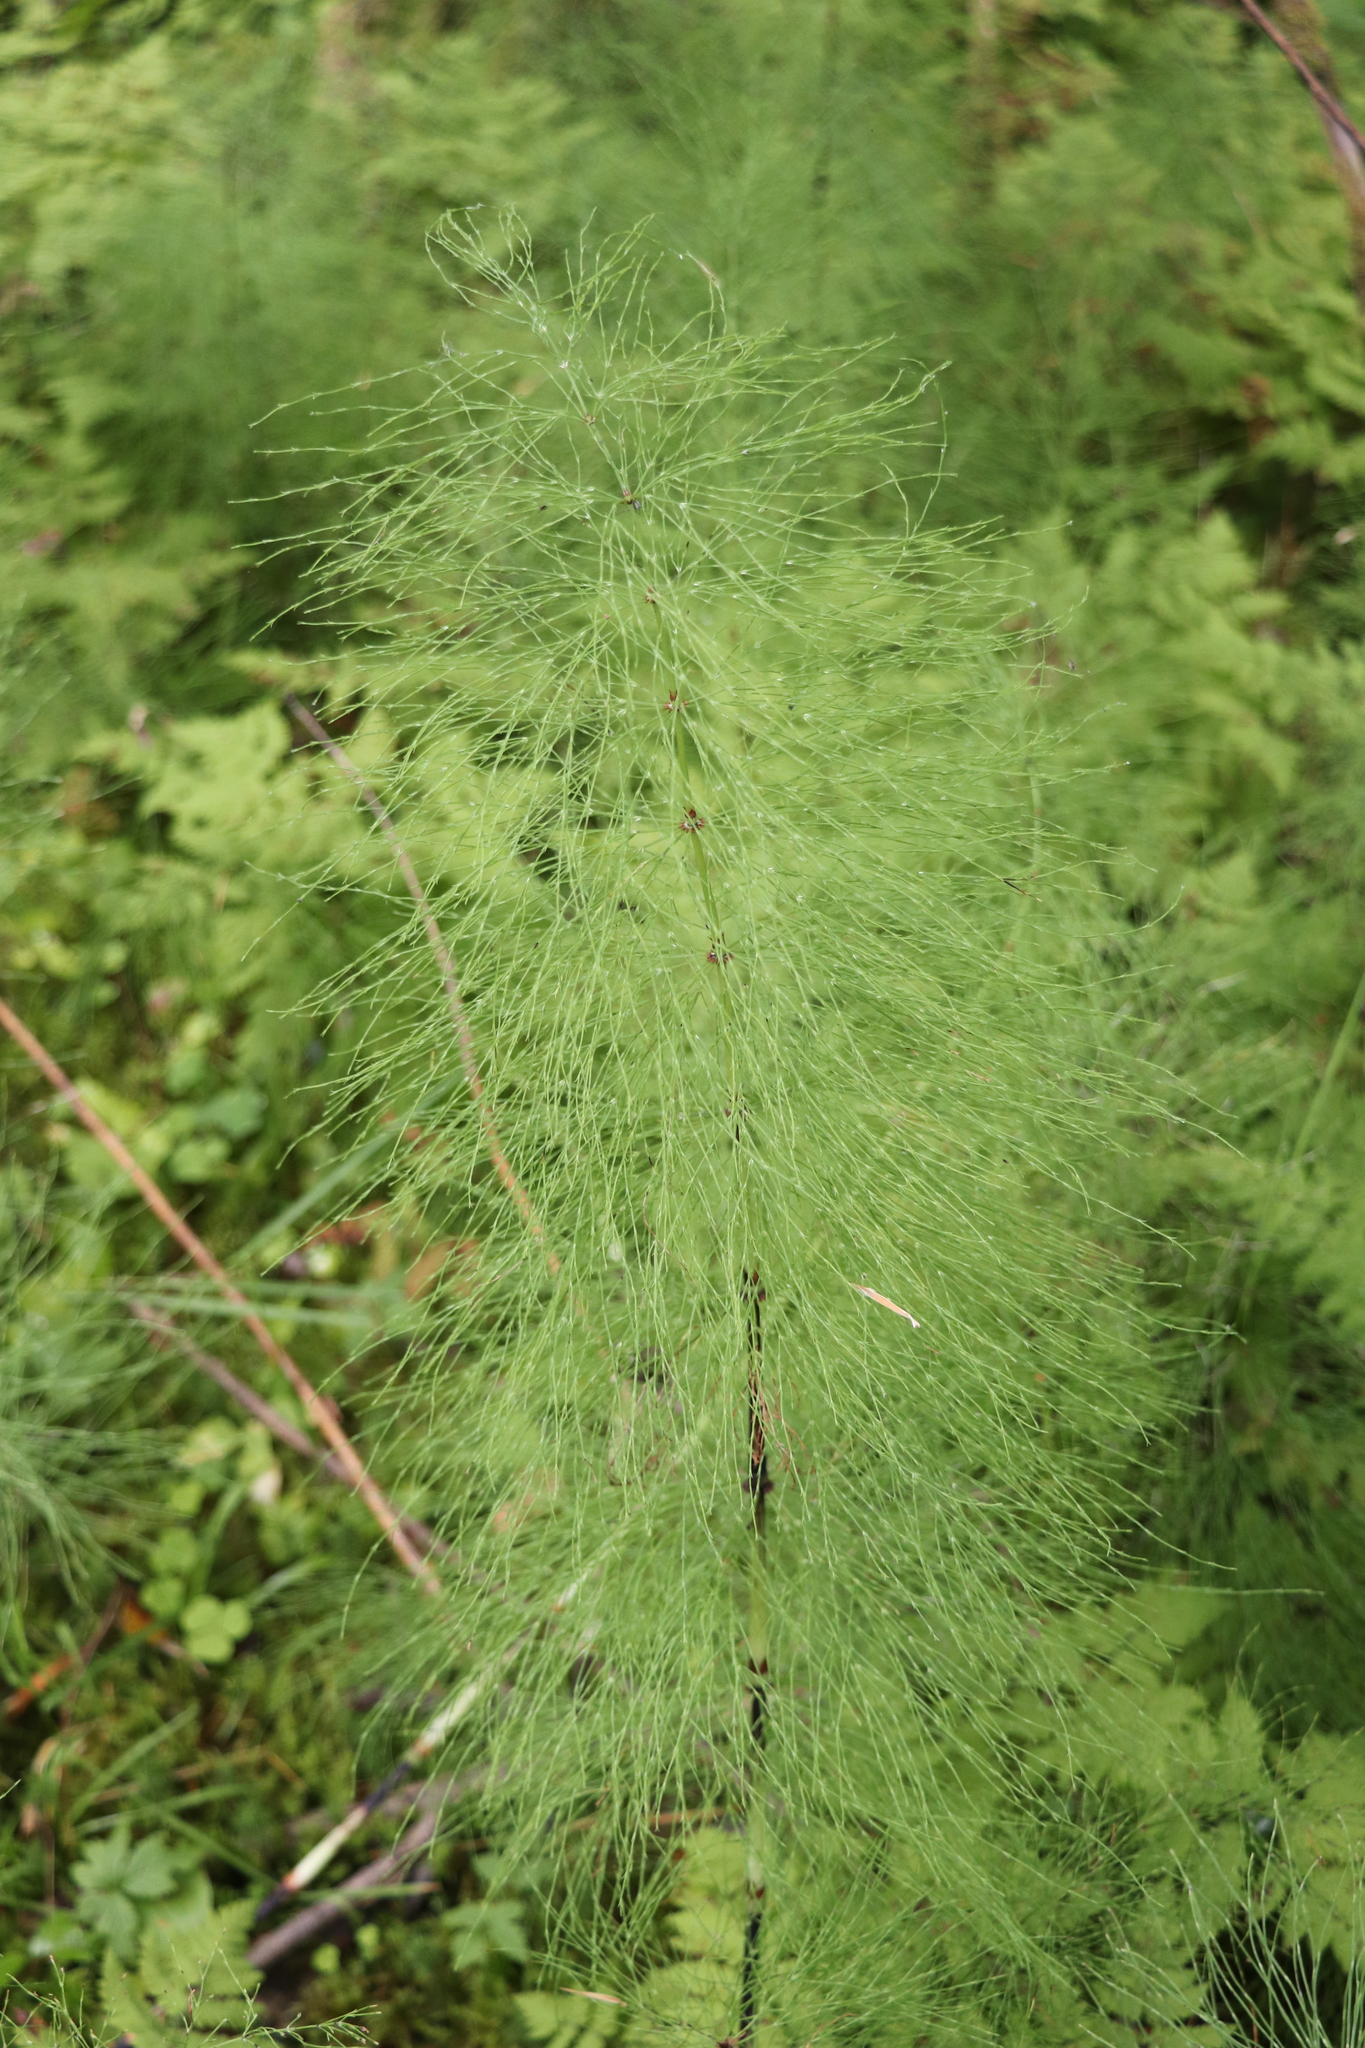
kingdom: Plantae
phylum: Tracheophyta
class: Polypodiopsida
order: Equisetales
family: Equisetaceae
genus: Equisetum
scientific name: Equisetum sylvaticum
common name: Wood horsetail
